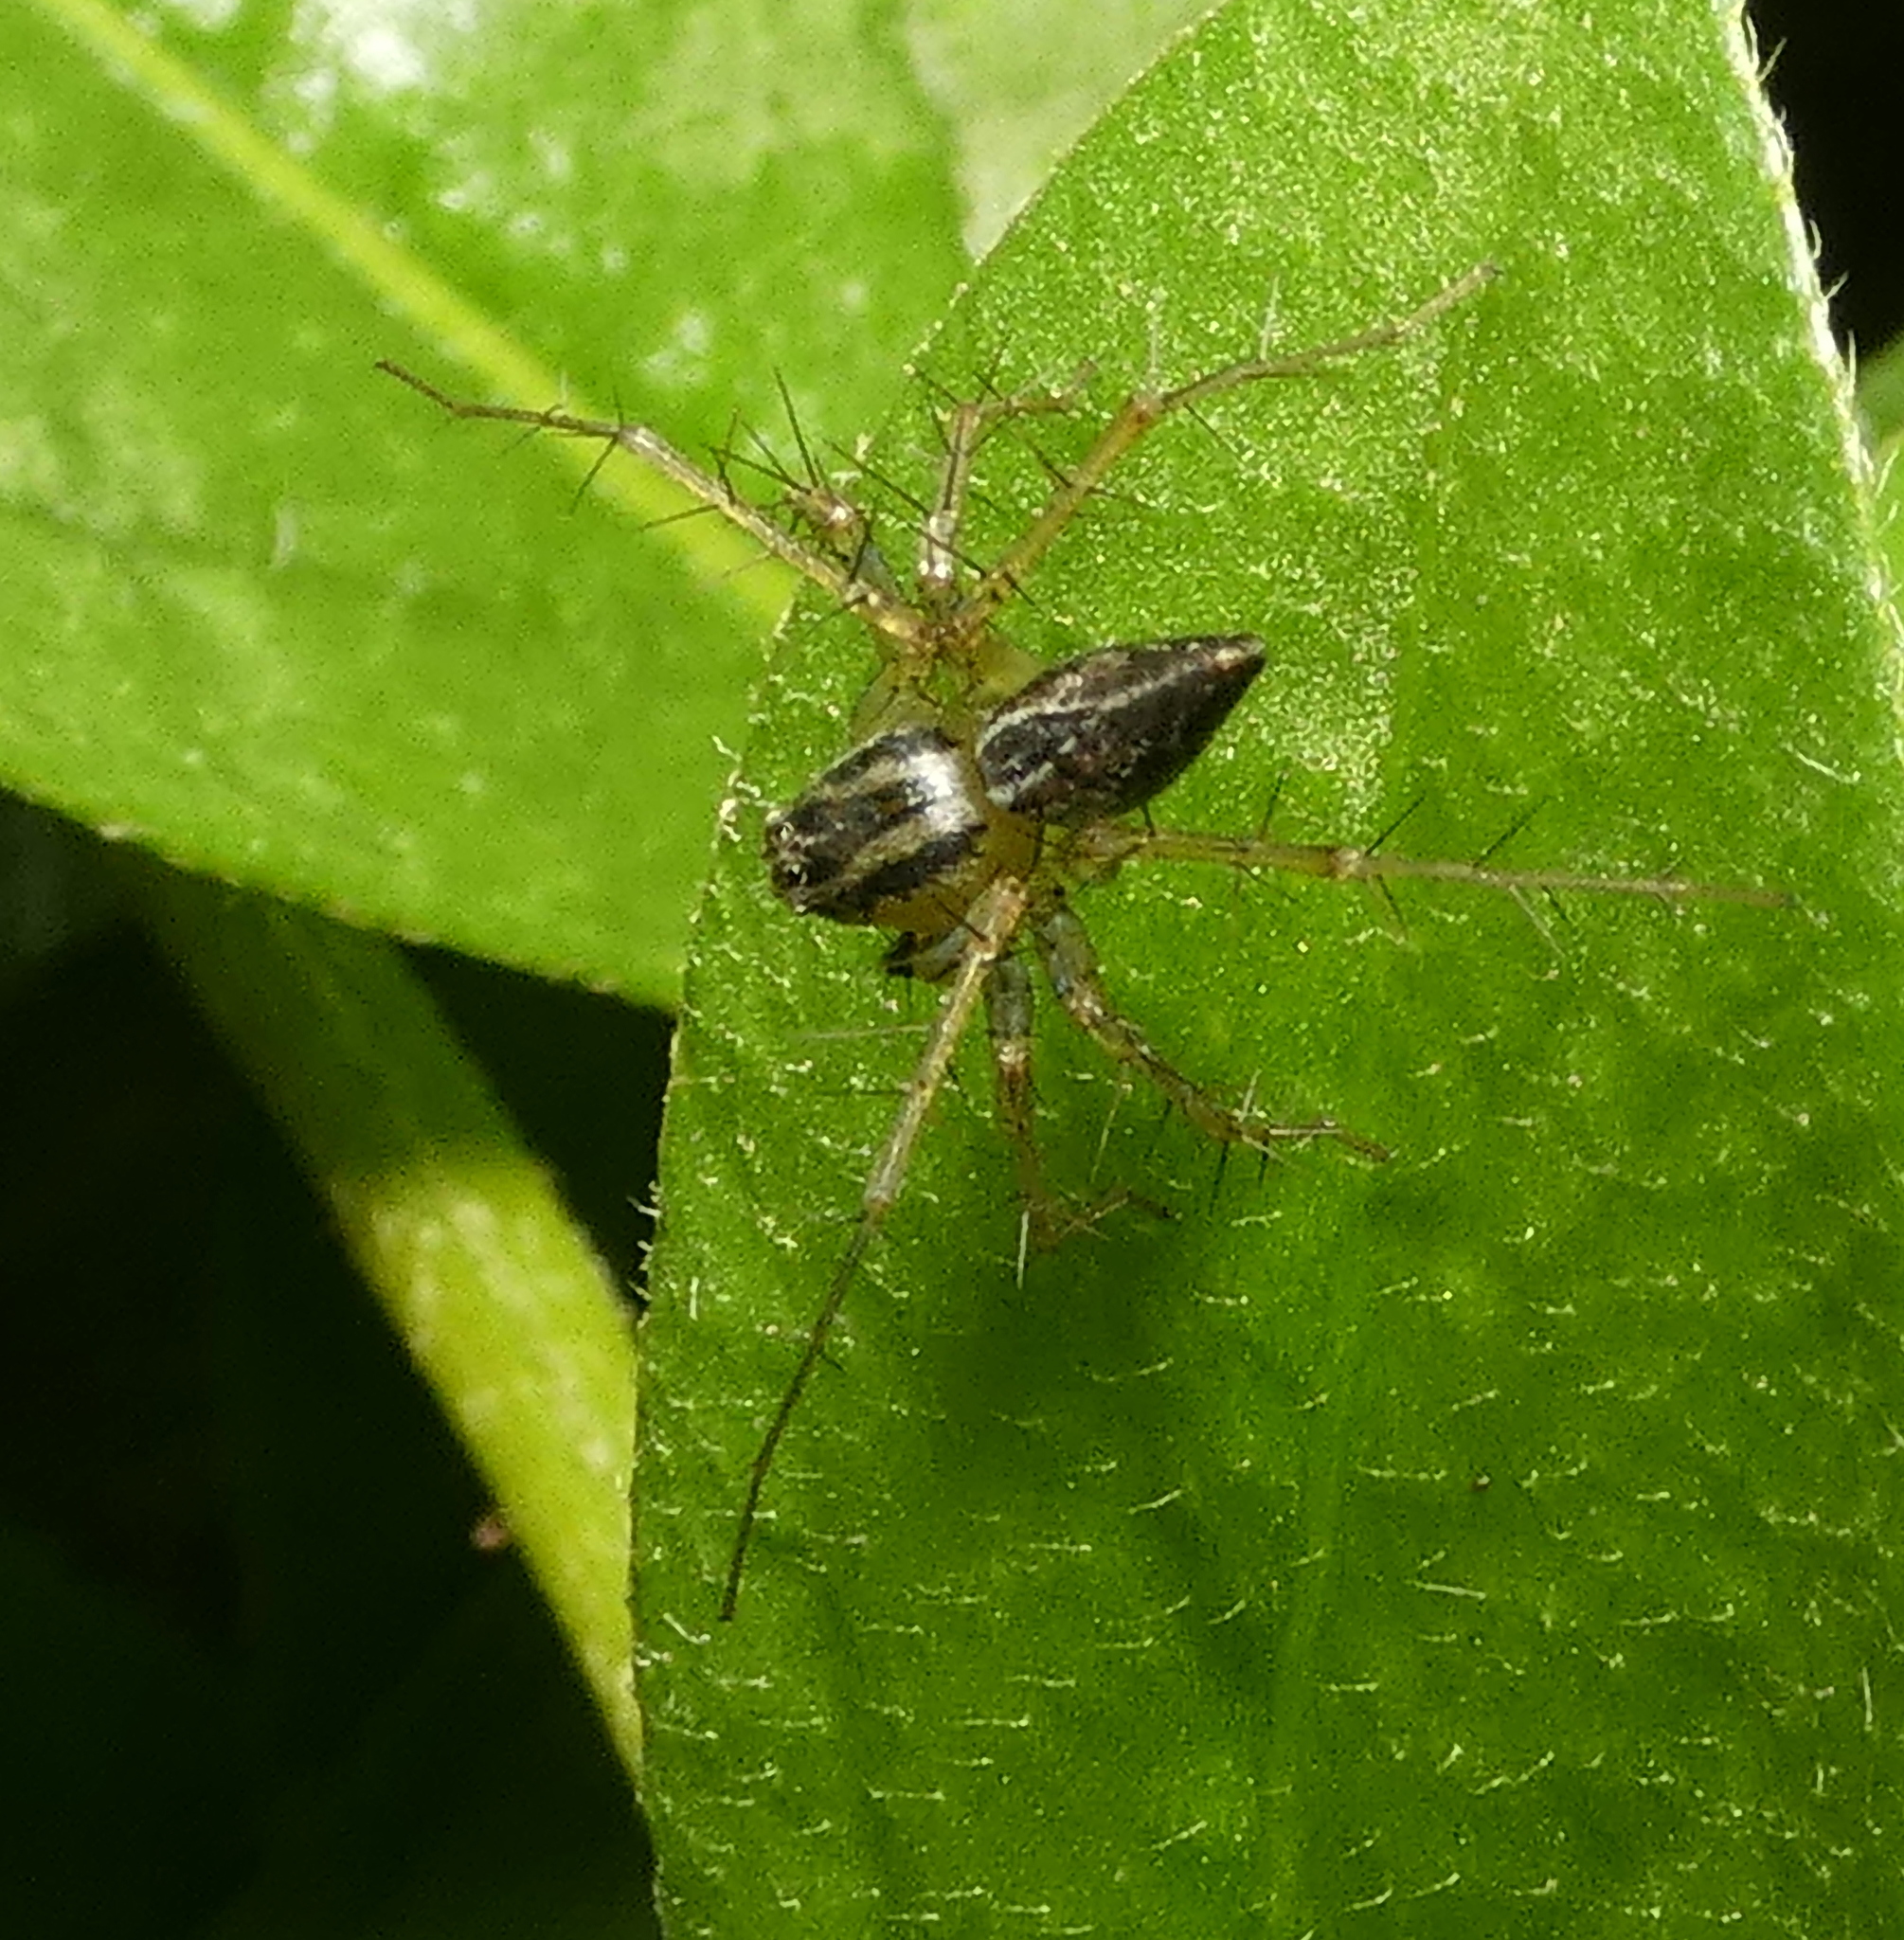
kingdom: Animalia
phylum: Arthropoda
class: Arachnida
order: Araneae
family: Oxyopidae
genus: Oxyopes
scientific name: Oxyopes salticus
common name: Lynx spiders
